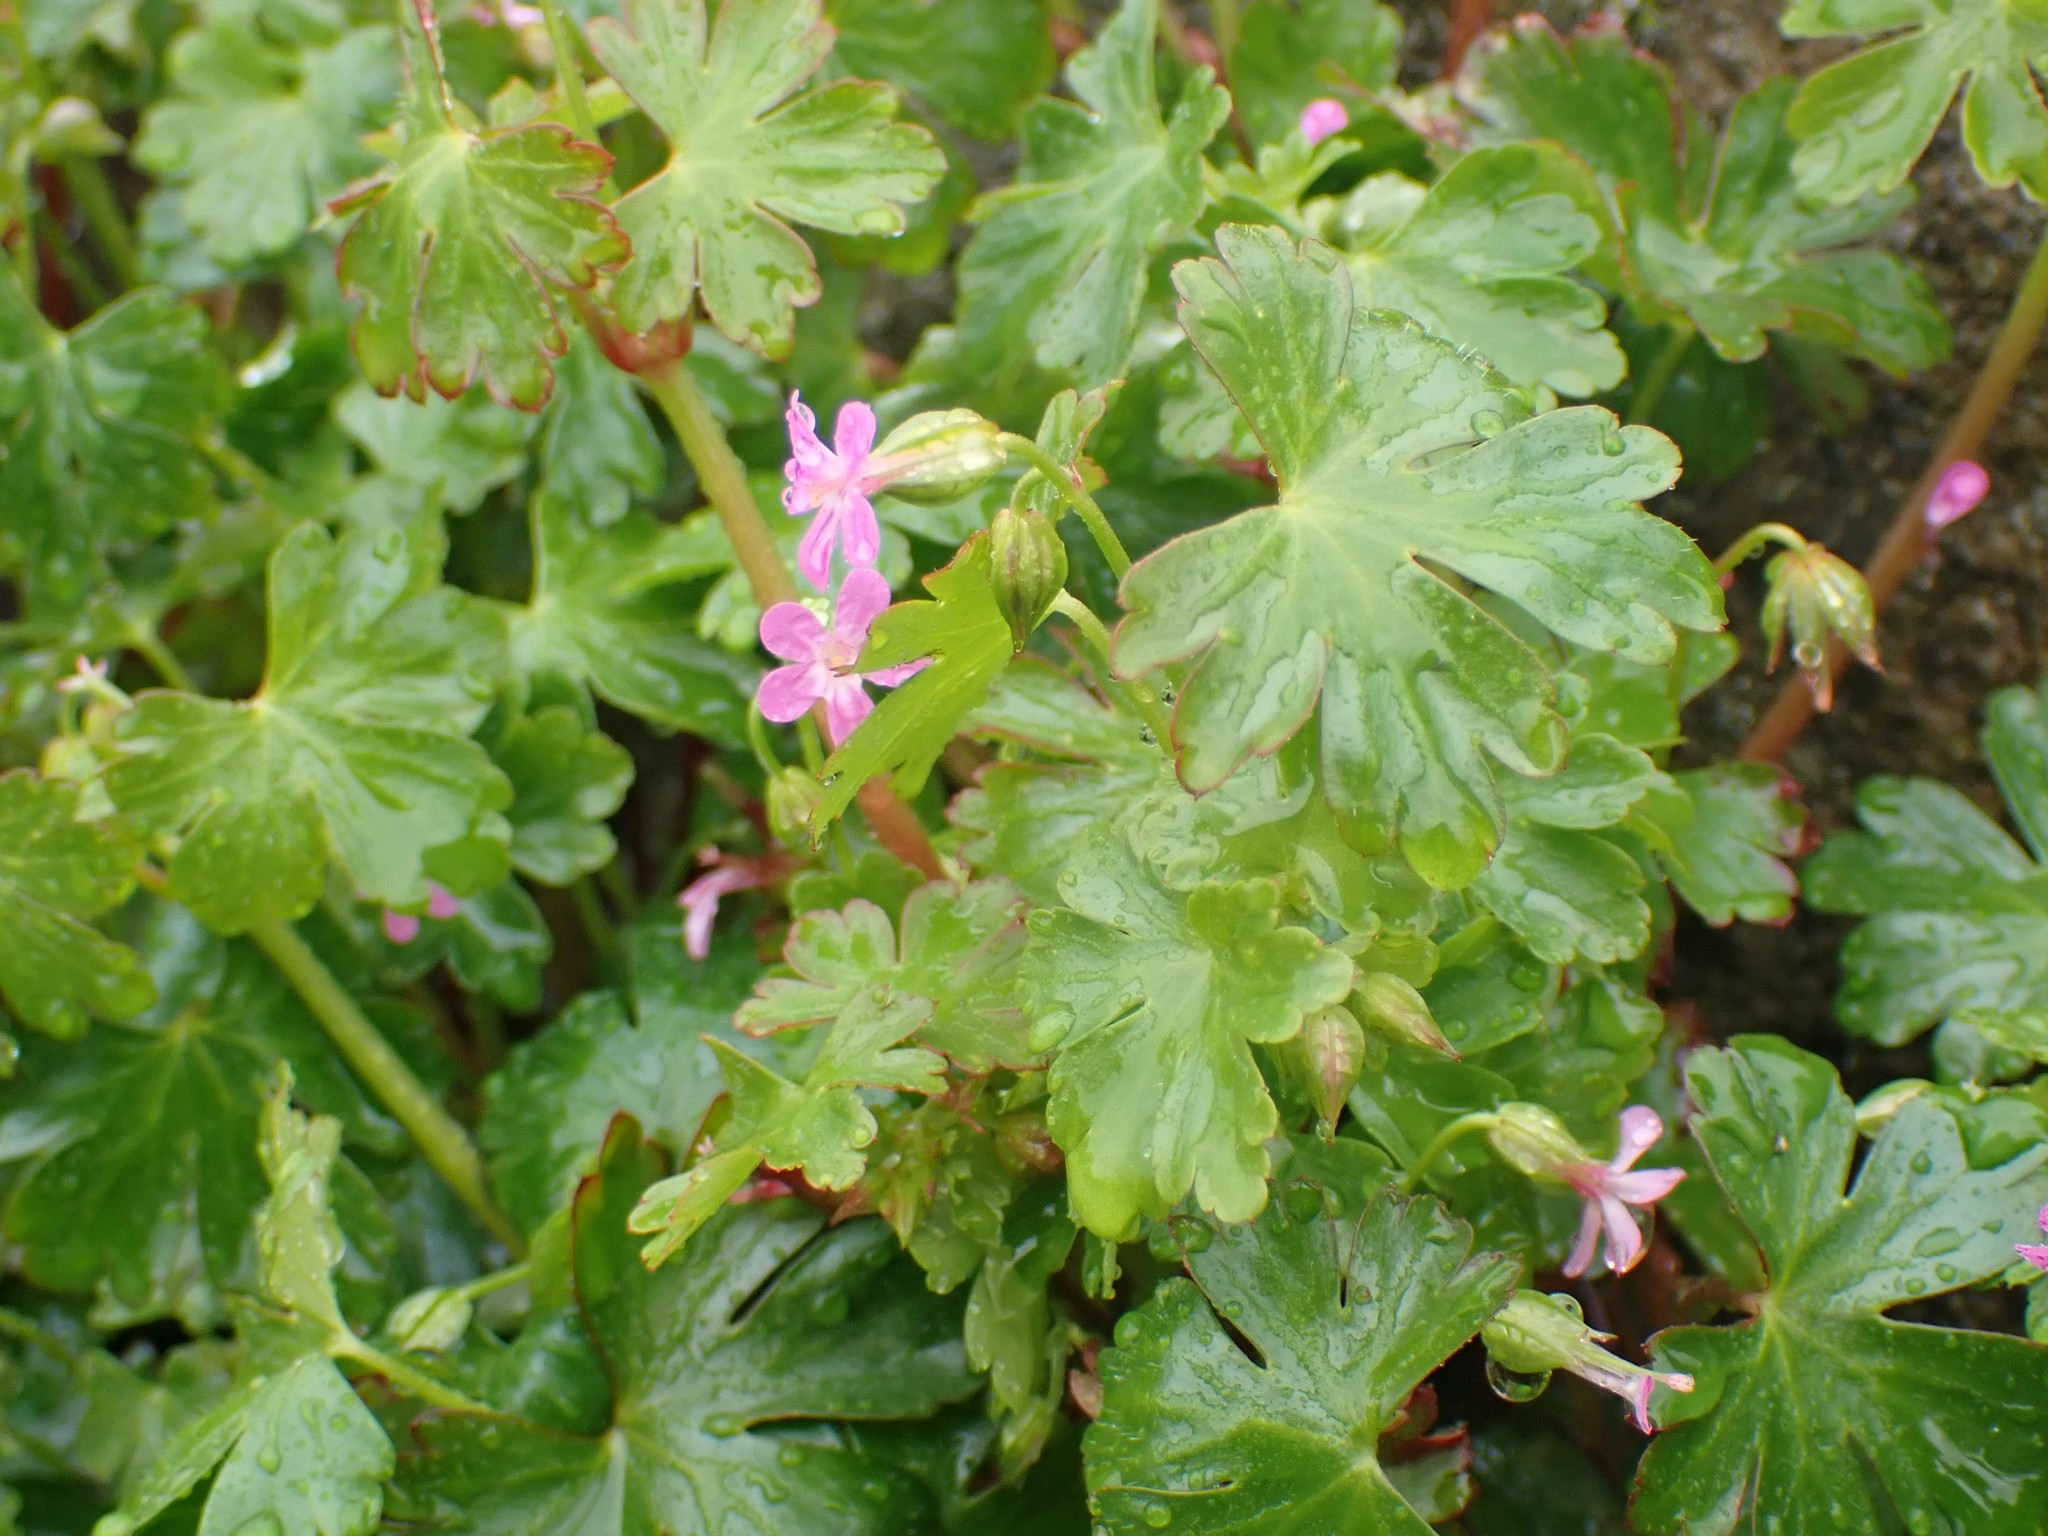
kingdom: Plantae
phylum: Tracheophyta
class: Magnoliopsida
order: Geraniales
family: Geraniaceae
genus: Geranium
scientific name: Geranium lucidum
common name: Shining crane's-bill
